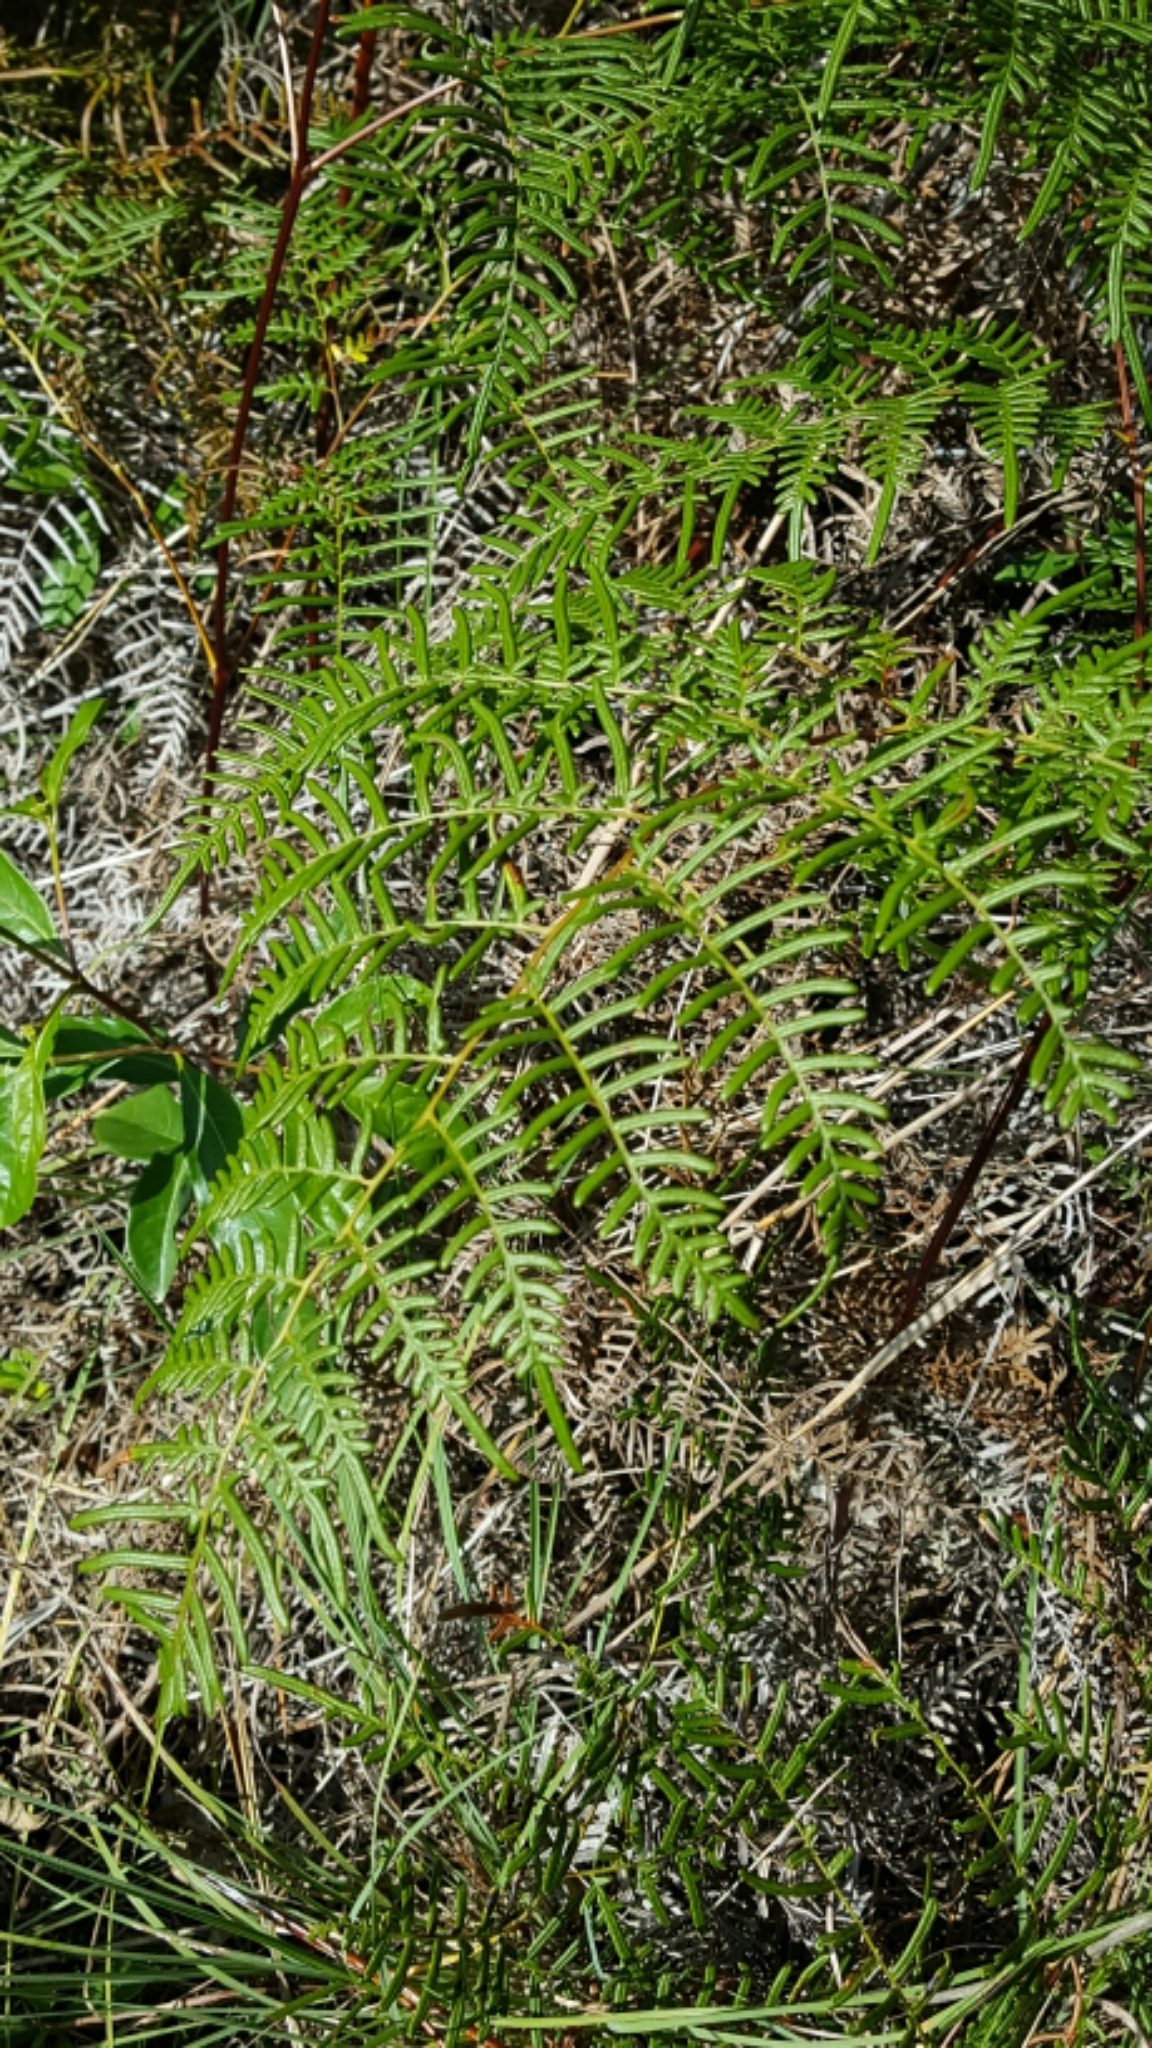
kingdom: Plantae
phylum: Tracheophyta
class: Polypodiopsida
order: Polypodiales
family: Dennstaedtiaceae
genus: Pteridium
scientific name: Pteridium caudatum
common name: Southern bracken fern
